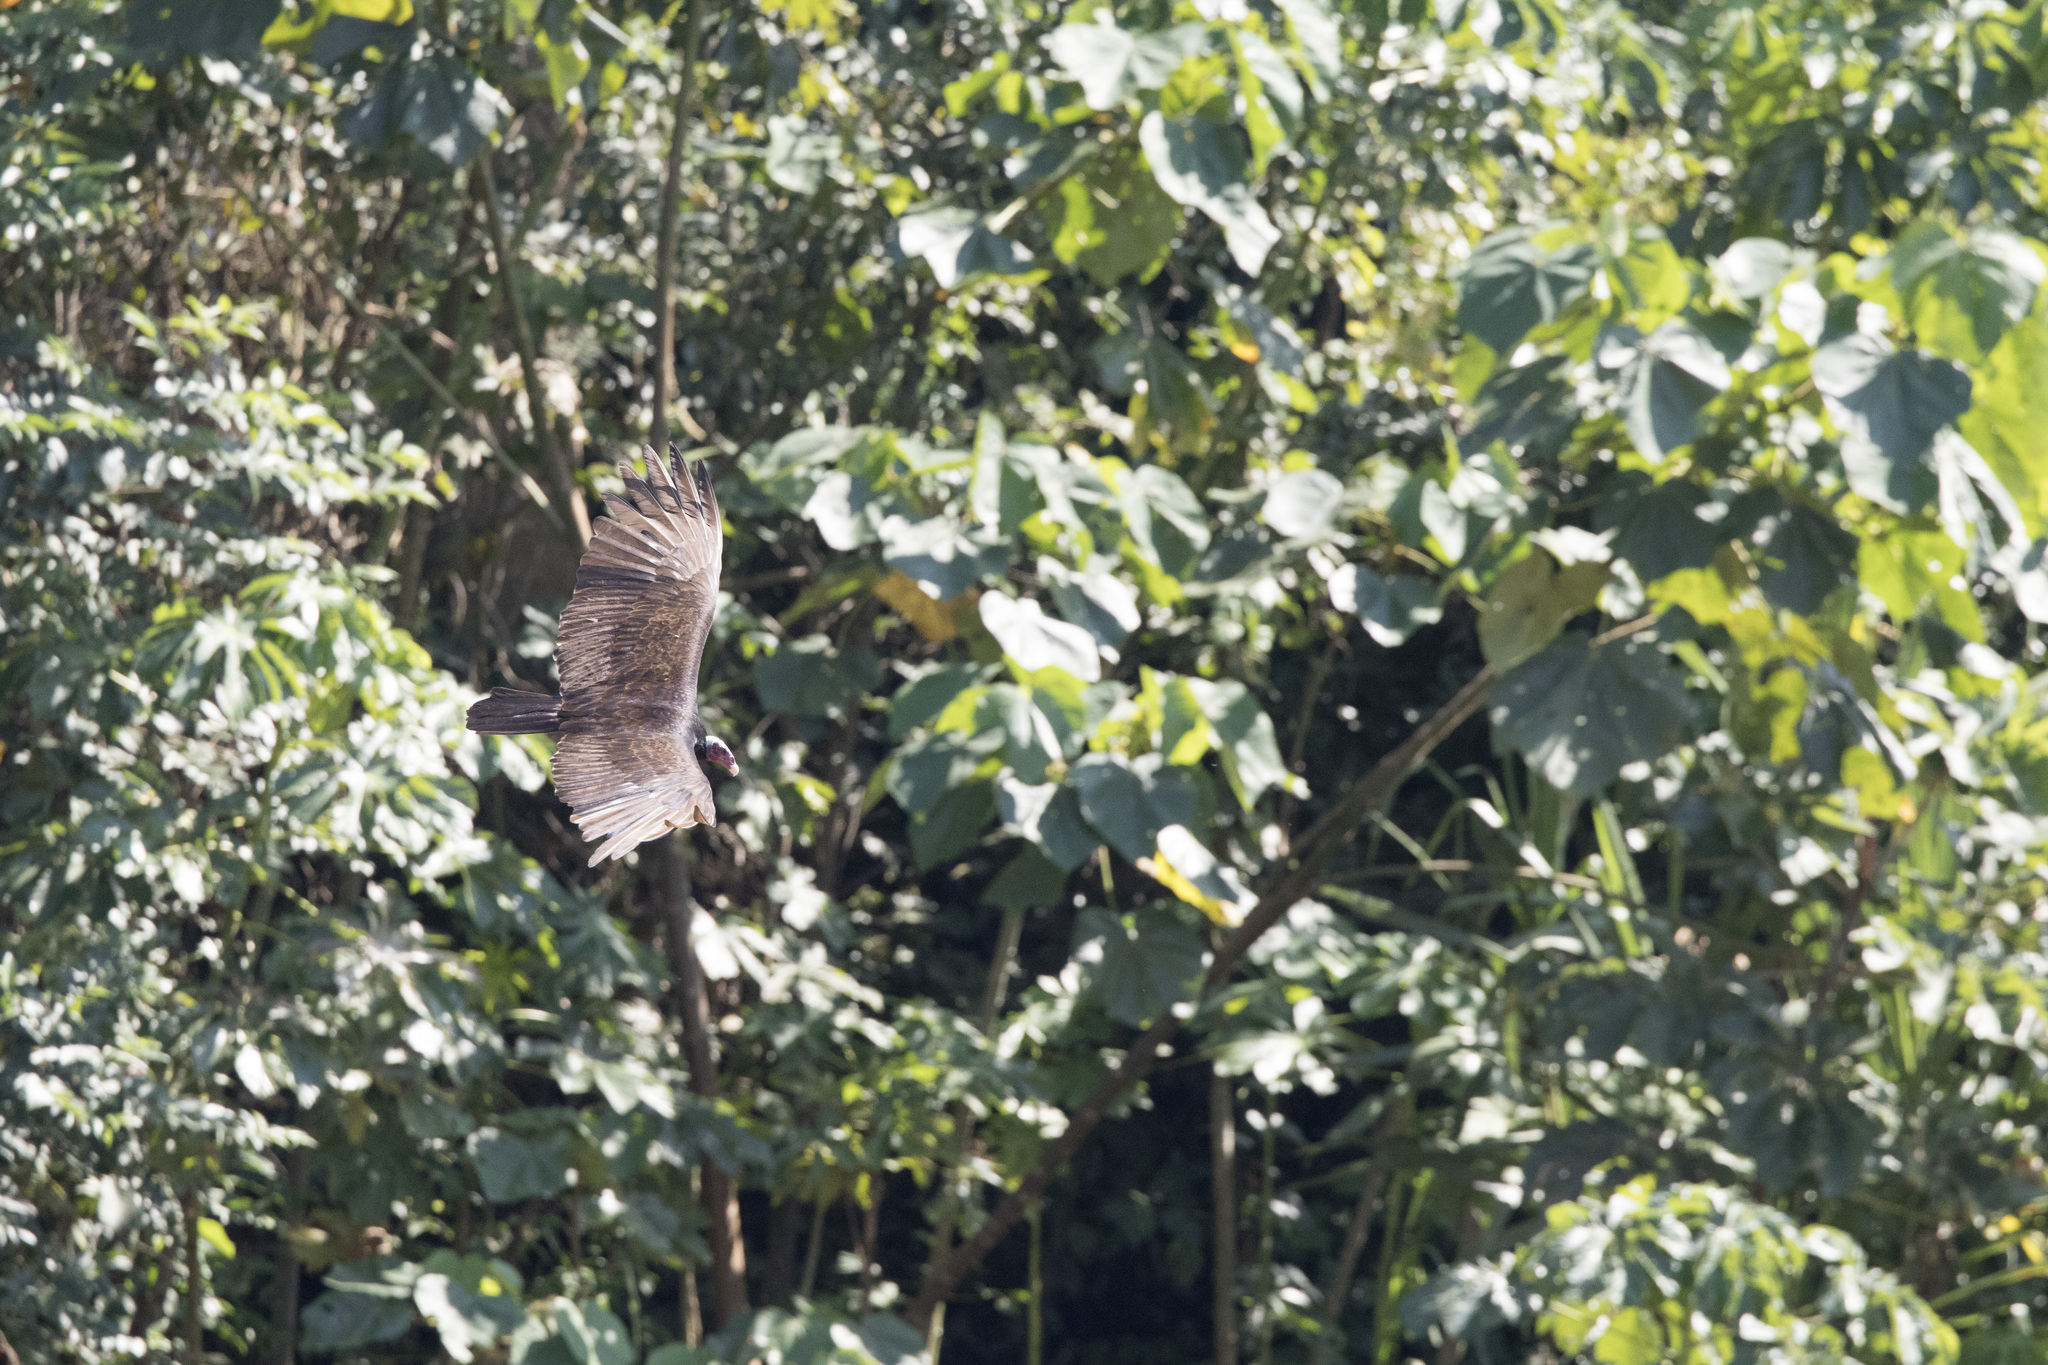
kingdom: Animalia
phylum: Chordata
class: Aves
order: Accipitriformes
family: Cathartidae
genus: Cathartes
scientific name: Cathartes aura
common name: Turkey vulture
